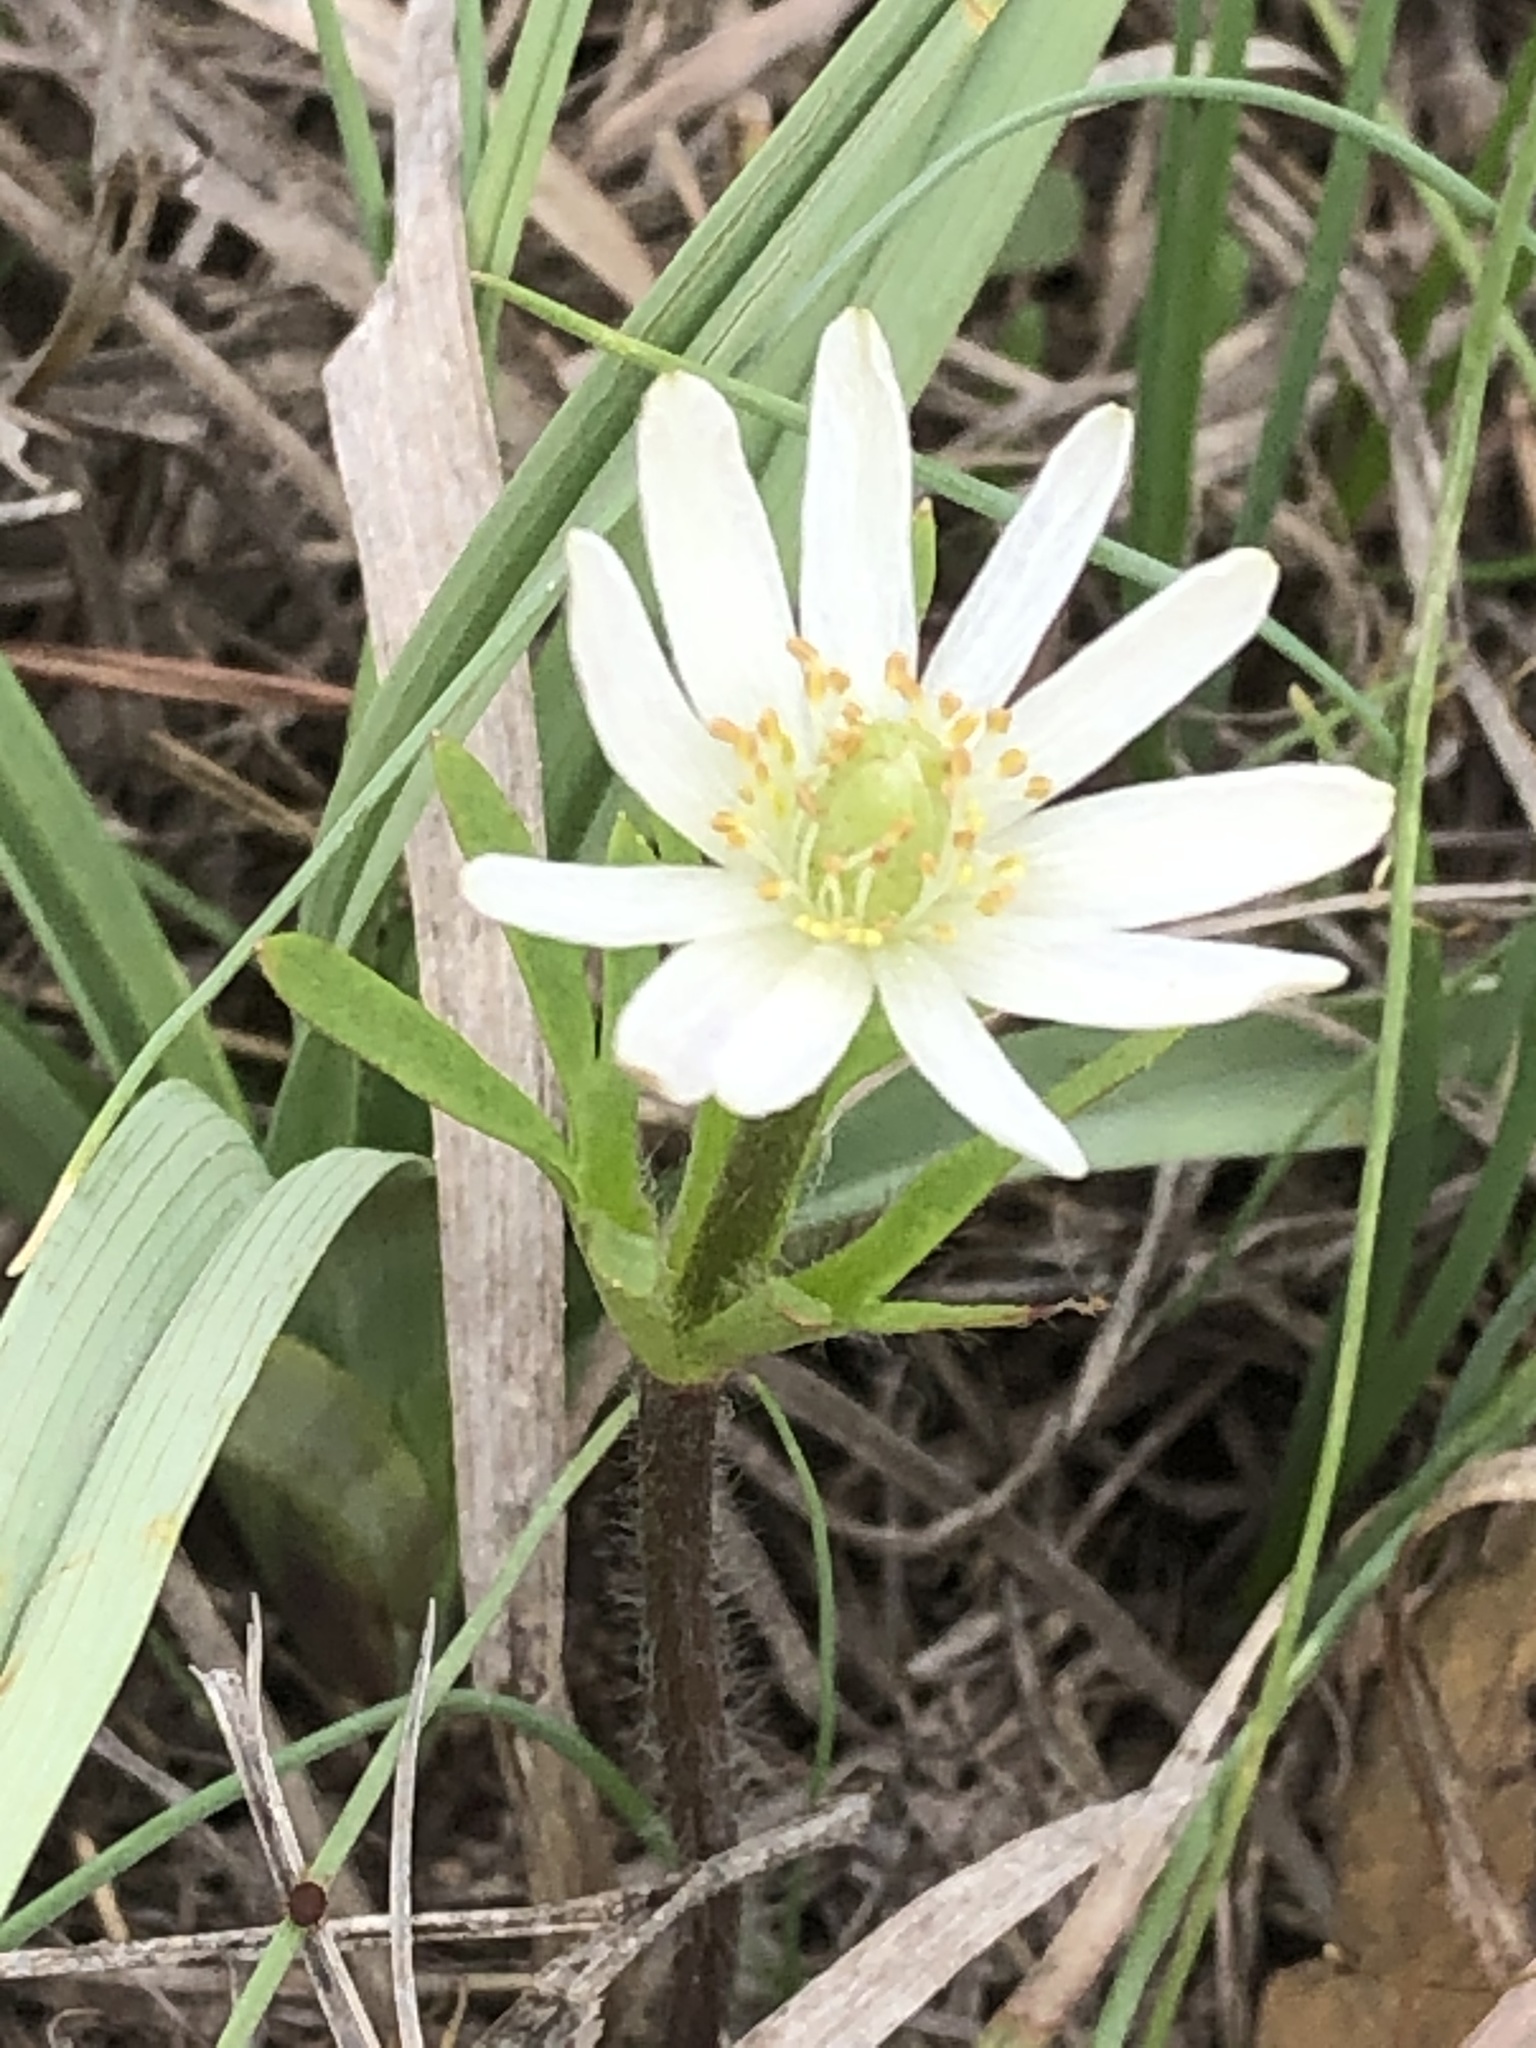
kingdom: Plantae
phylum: Tracheophyta
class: Magnoliopsida
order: Ranunculales
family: Ranunculaceae
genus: Anemone
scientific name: Anemone berlandieri
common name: Ten-petal anemone
